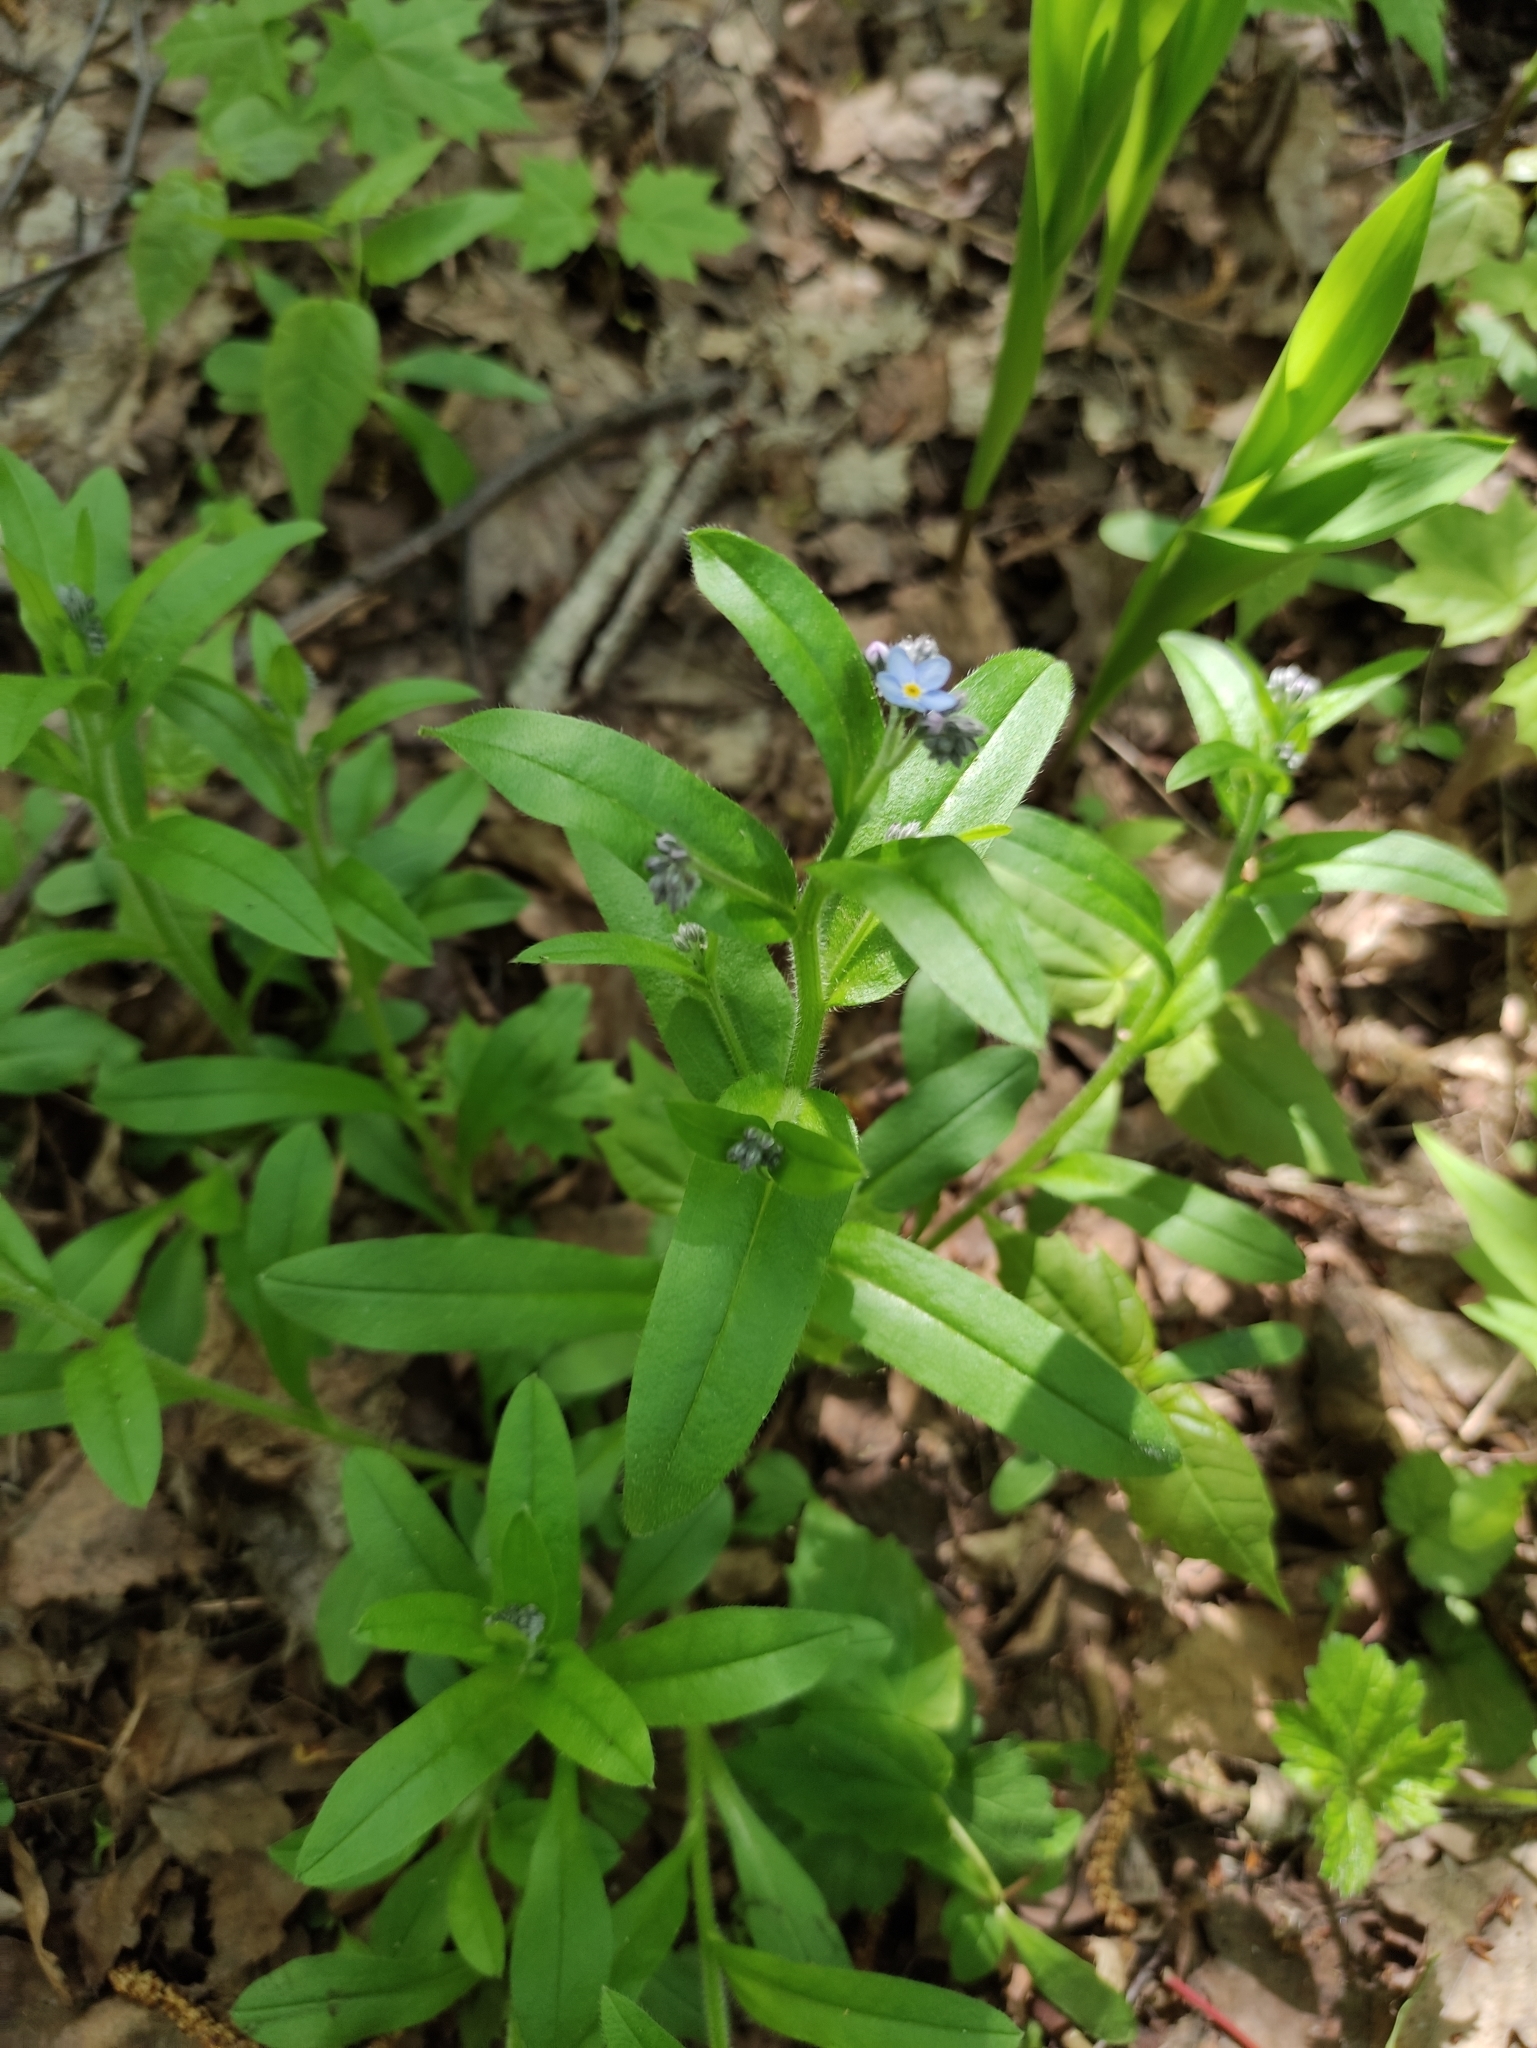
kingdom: Plantae
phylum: Tracheophyta
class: Magnoliopsida
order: Boraginales
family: Boraginaceae
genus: Myosotis
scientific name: Myosotis sylvatica
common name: Wood forget-me-not
